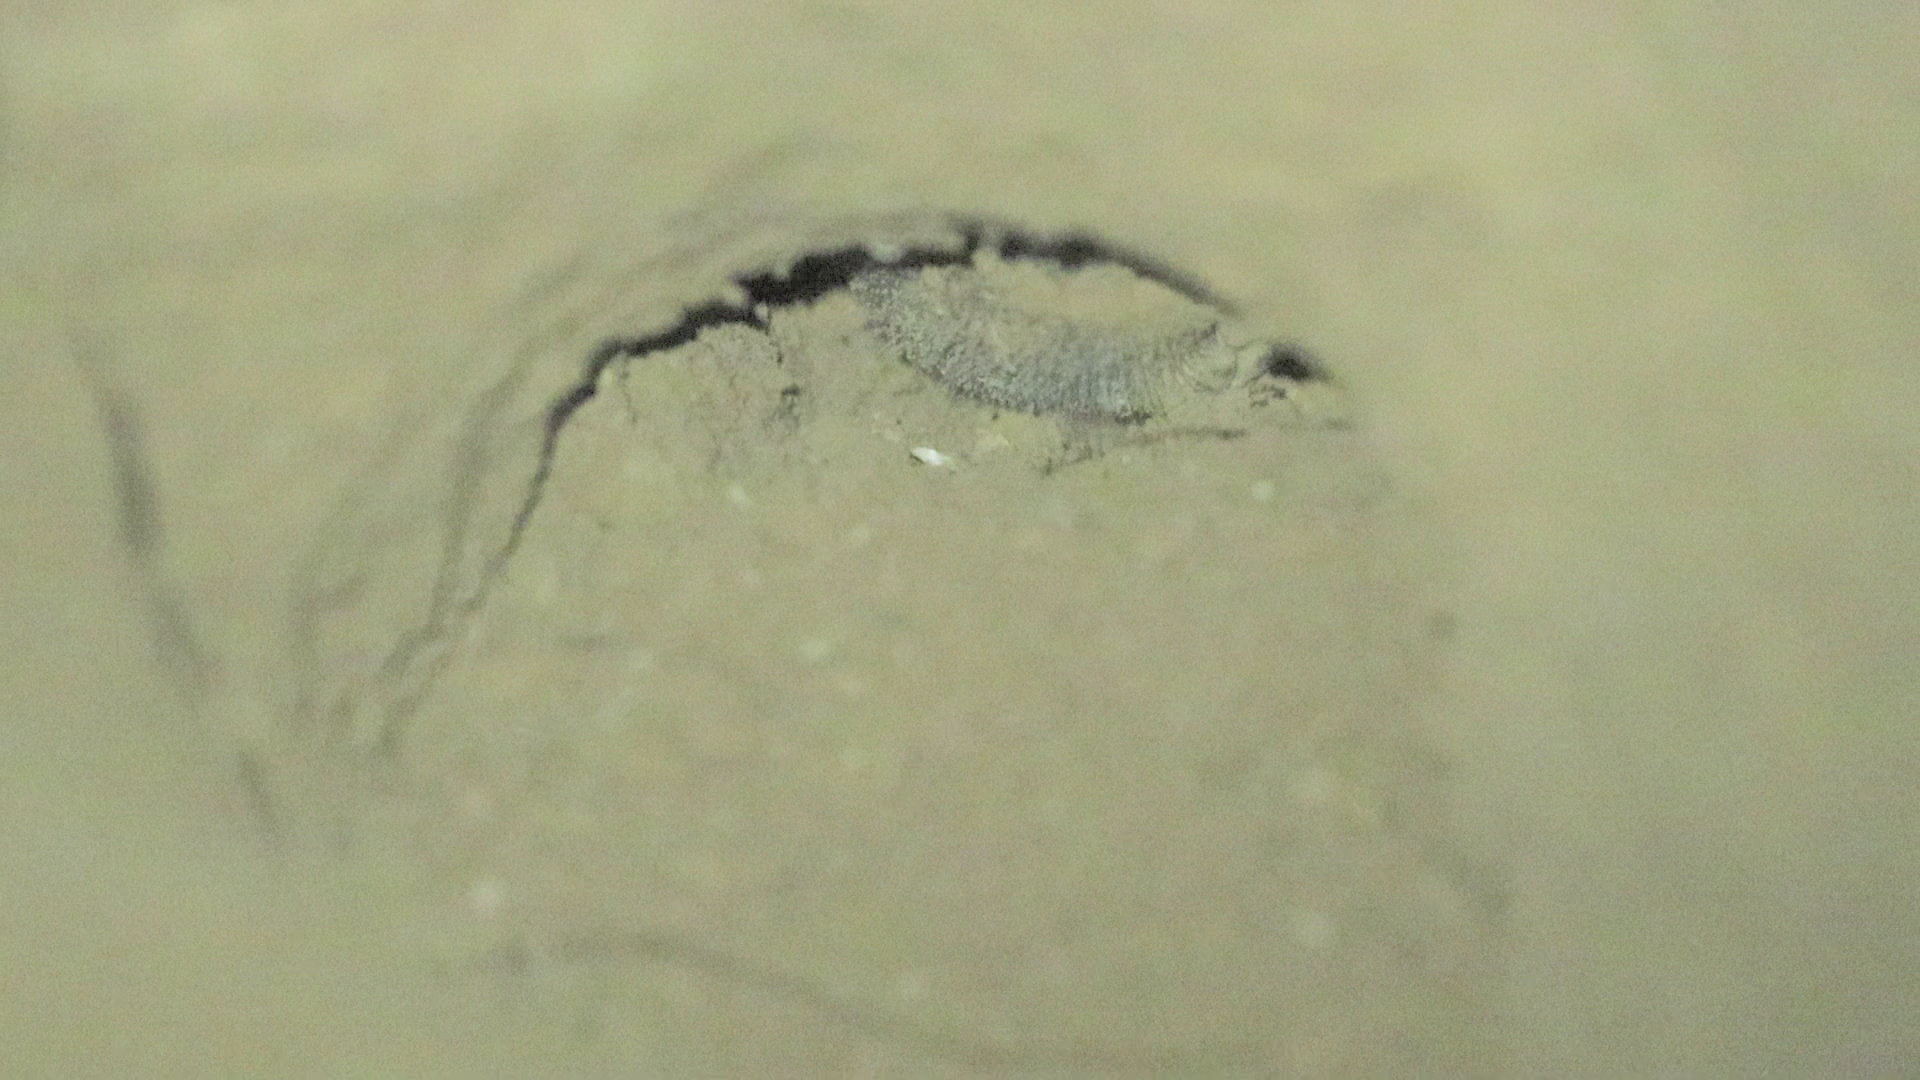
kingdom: Animalia
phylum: Chordata
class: Mammalia
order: Rodentia
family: Spalacidae
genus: Spalax
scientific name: Spalax ehrenbergi
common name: Middle east blind mole rat
